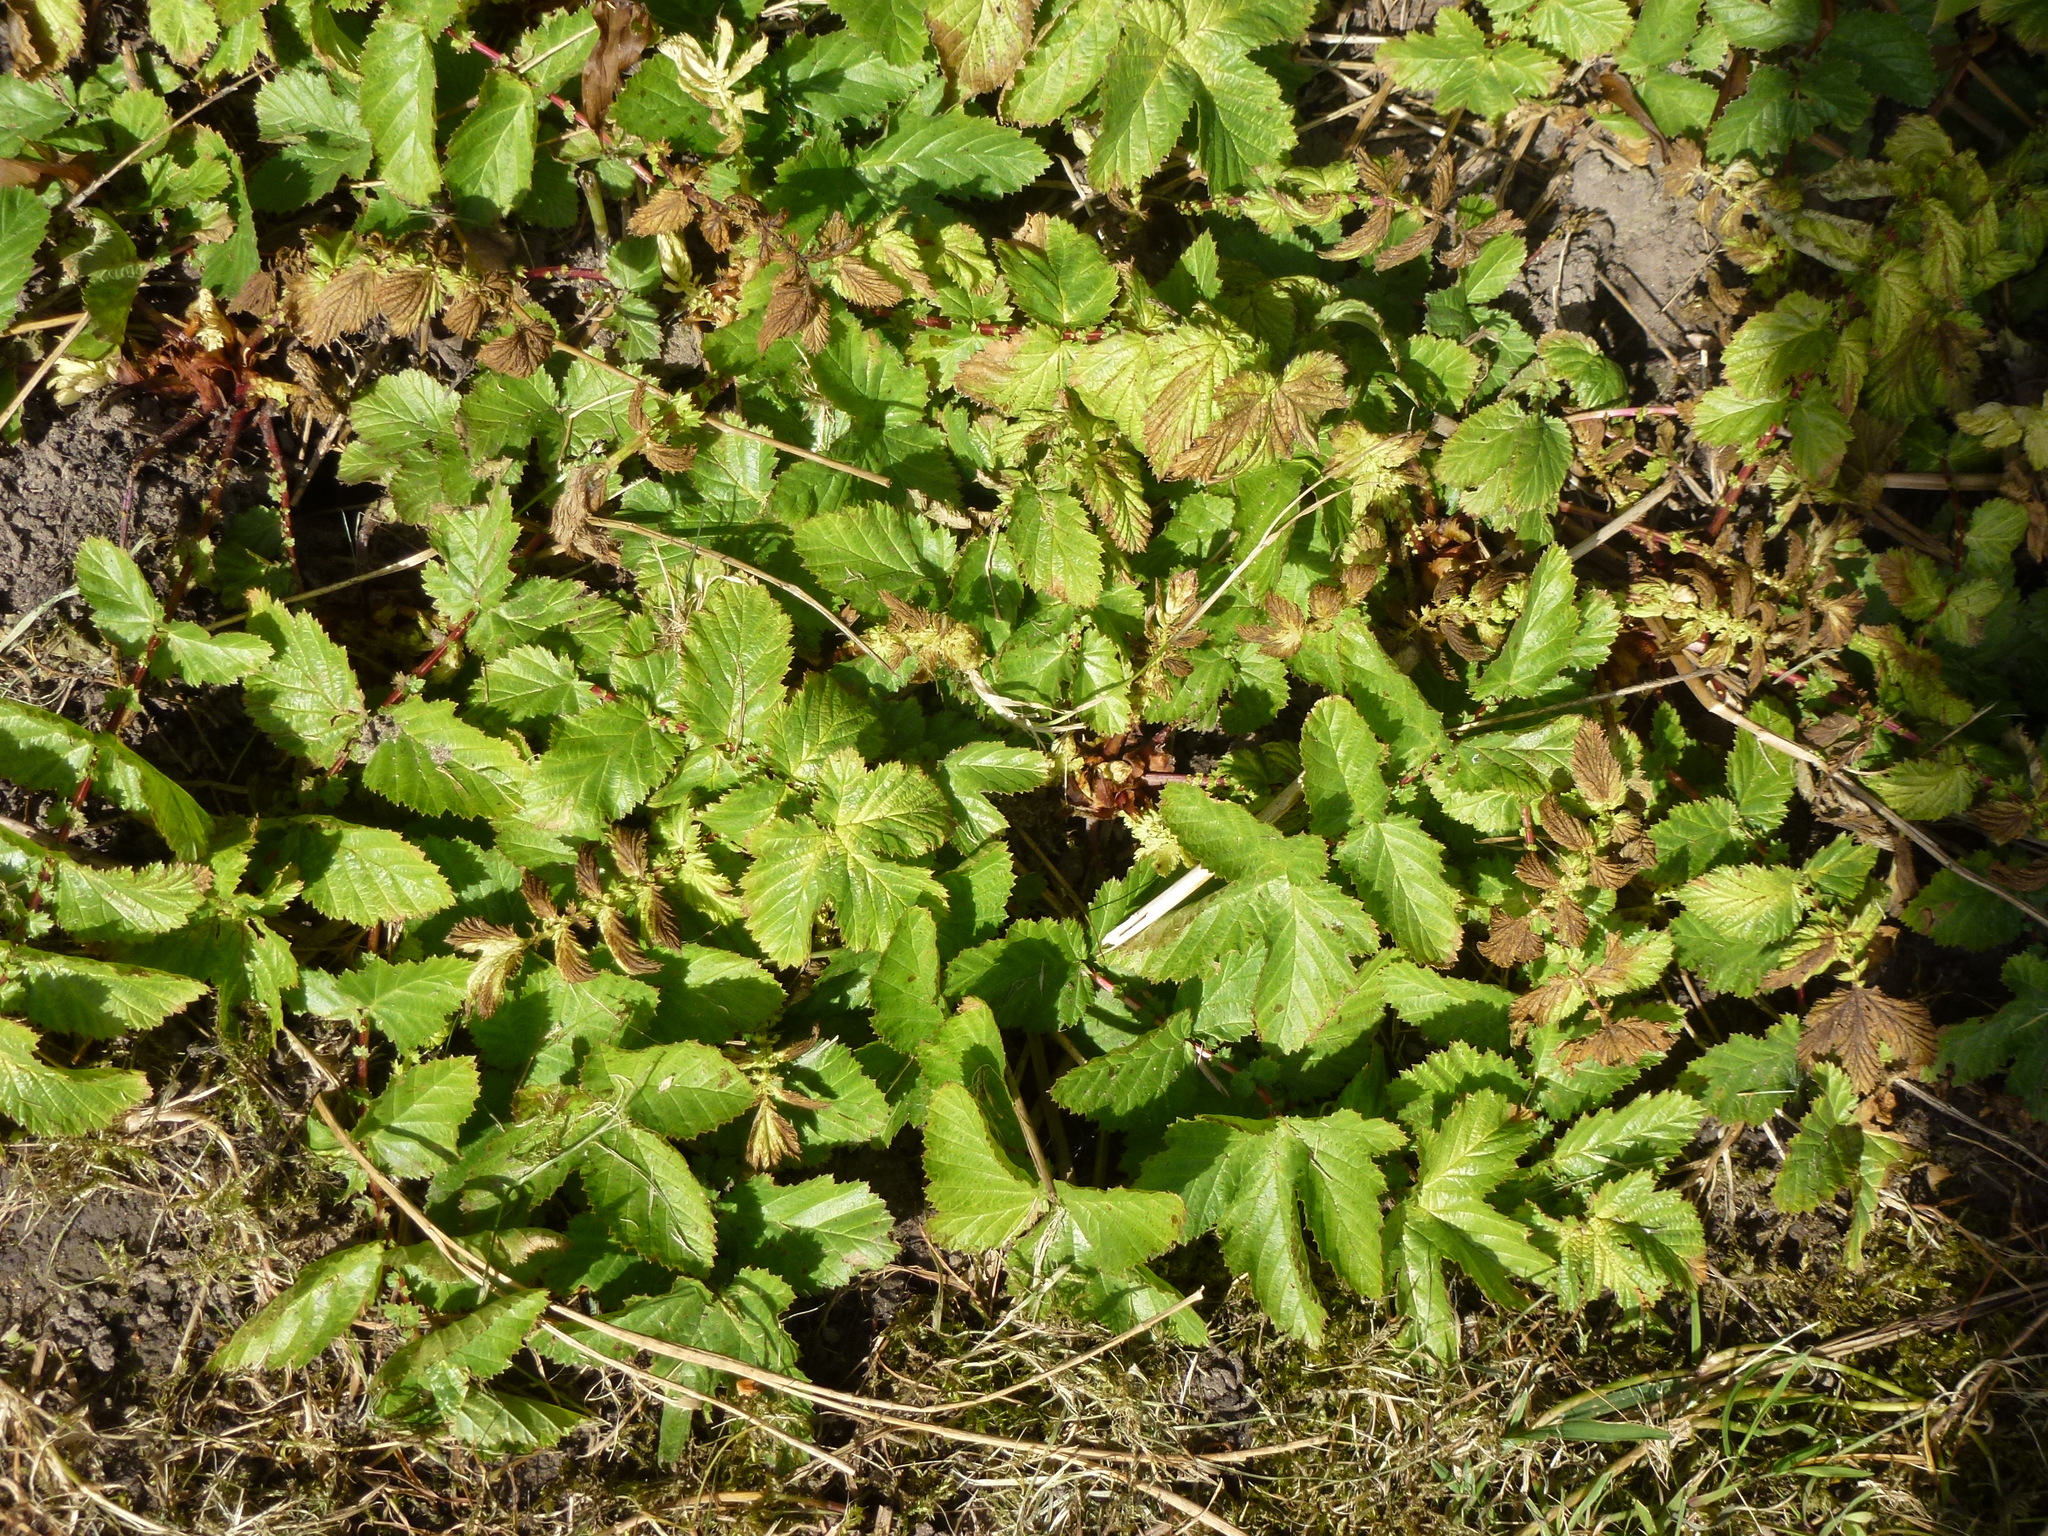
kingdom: Plantae
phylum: Tracheophyta
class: Magnoliopsida
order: Rosales
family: Rosaceae
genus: Filipendula
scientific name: Filipendula ulmaria
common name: Meadowsweet
